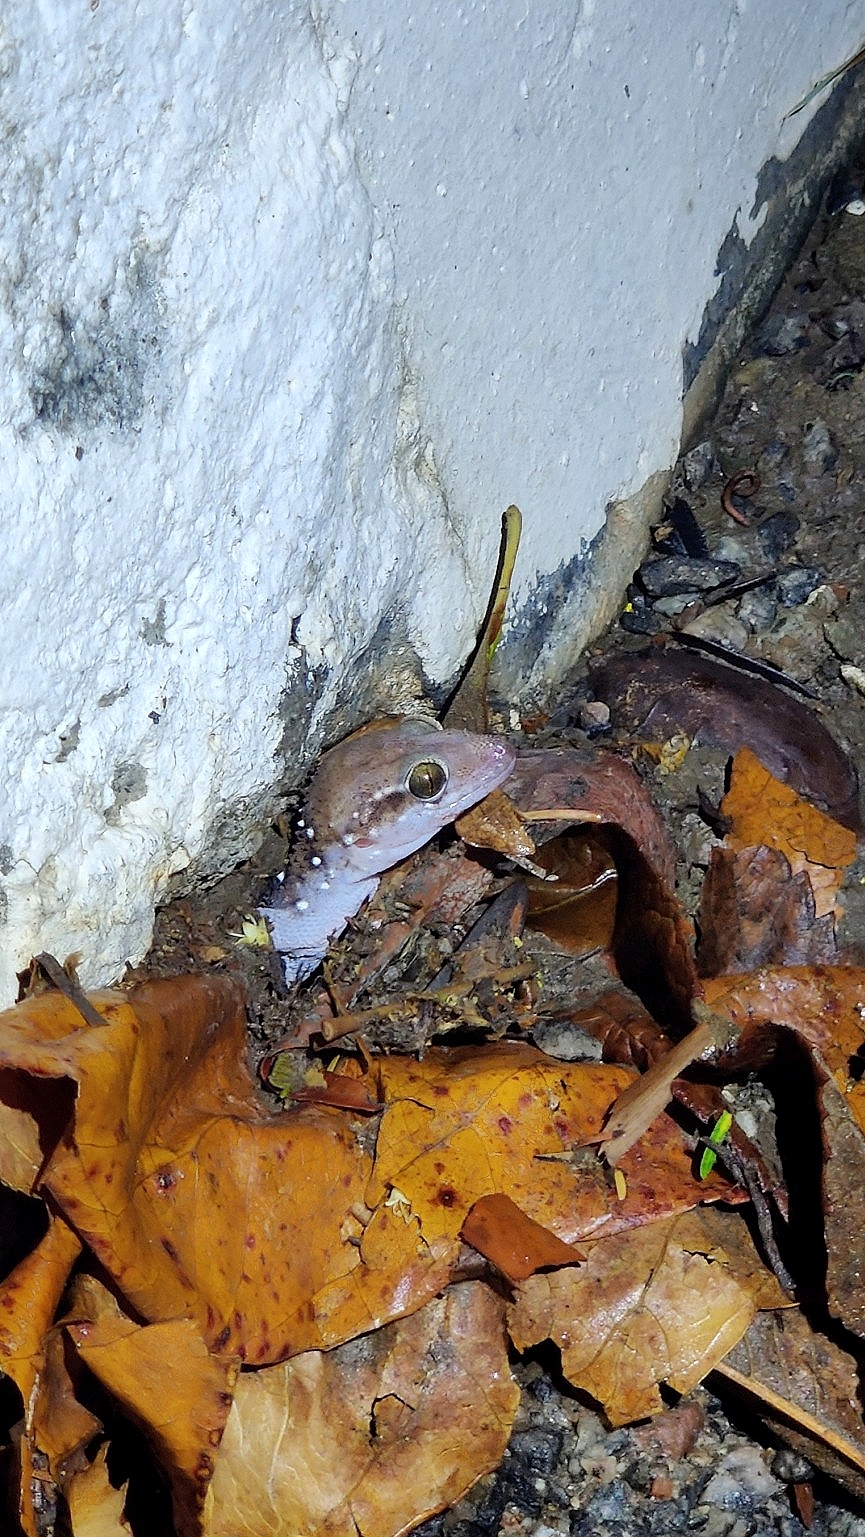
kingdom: Animalia
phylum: Chordata
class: Squamata
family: Gekkonidae
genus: Hemidactylus
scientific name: Hemidactylus whitakeri
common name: Whitaker’s termite hill gecko
